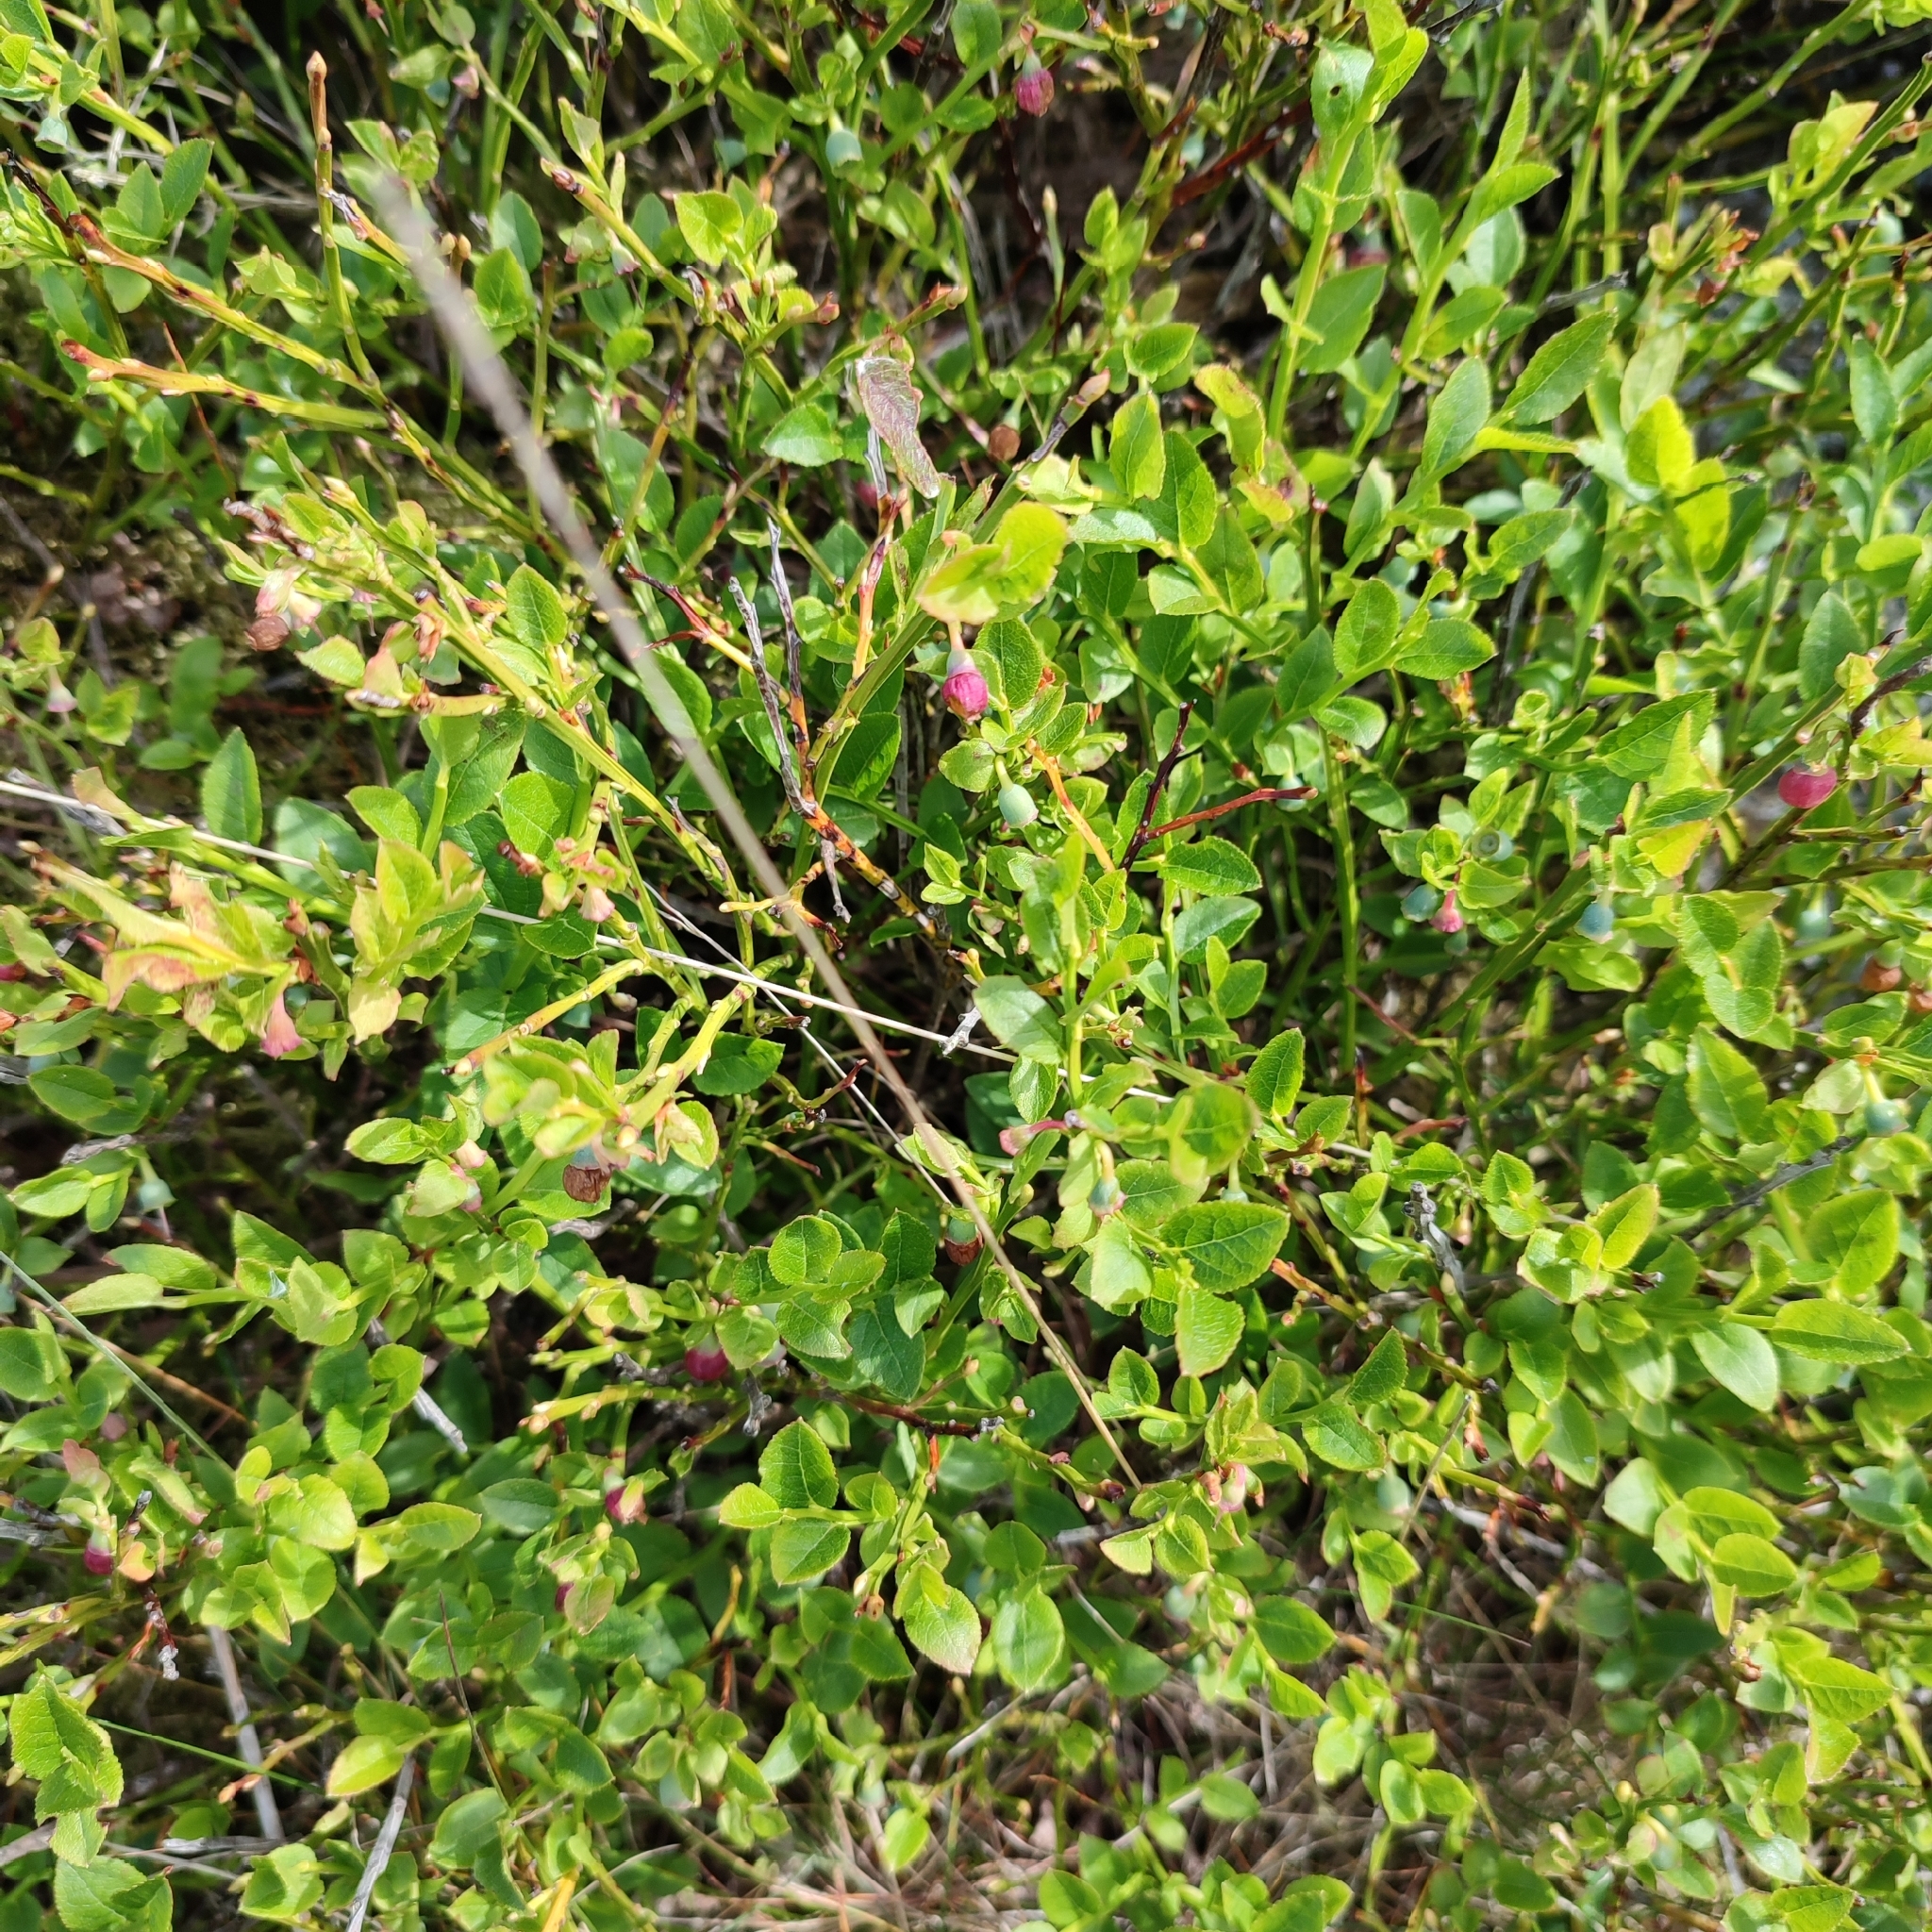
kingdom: Plantae
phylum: Tracheophyta
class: Magnoliopsida
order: Ericales
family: Ericaceae
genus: Vaccinium
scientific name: Vaccinium myrtillus
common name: Bilberry
